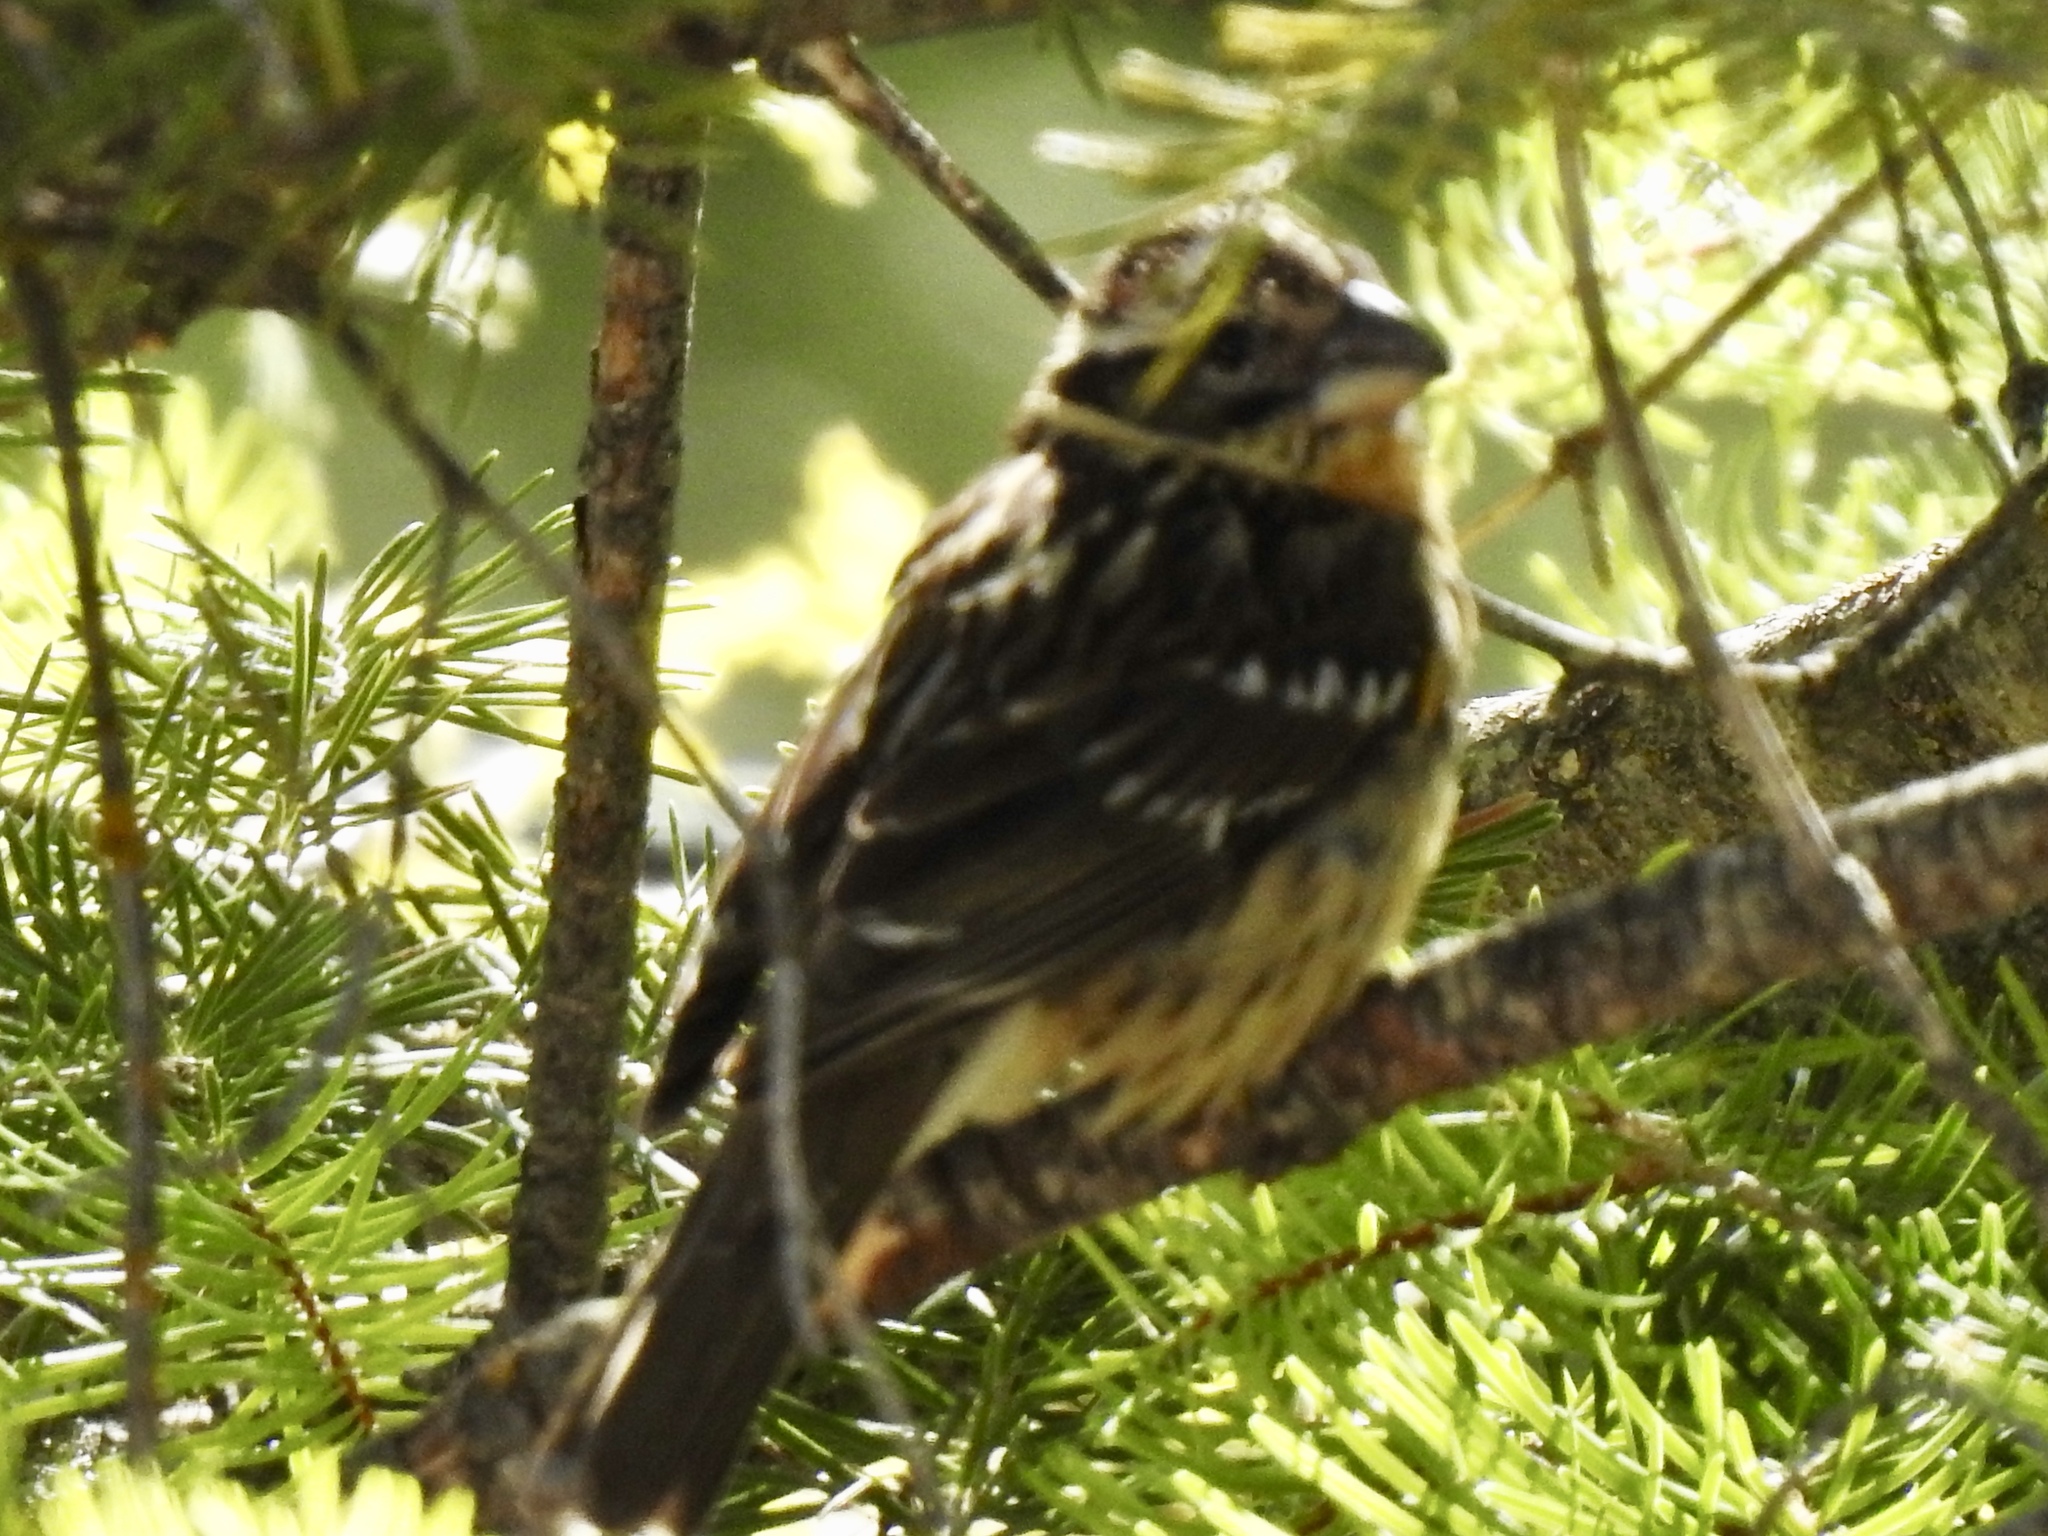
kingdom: Animalia
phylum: Chordata
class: Aves
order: Passeriformes
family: Cardinalidae
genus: Pheucticus
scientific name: Pheucticus melanocephalus
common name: Black-headed grosbeak
